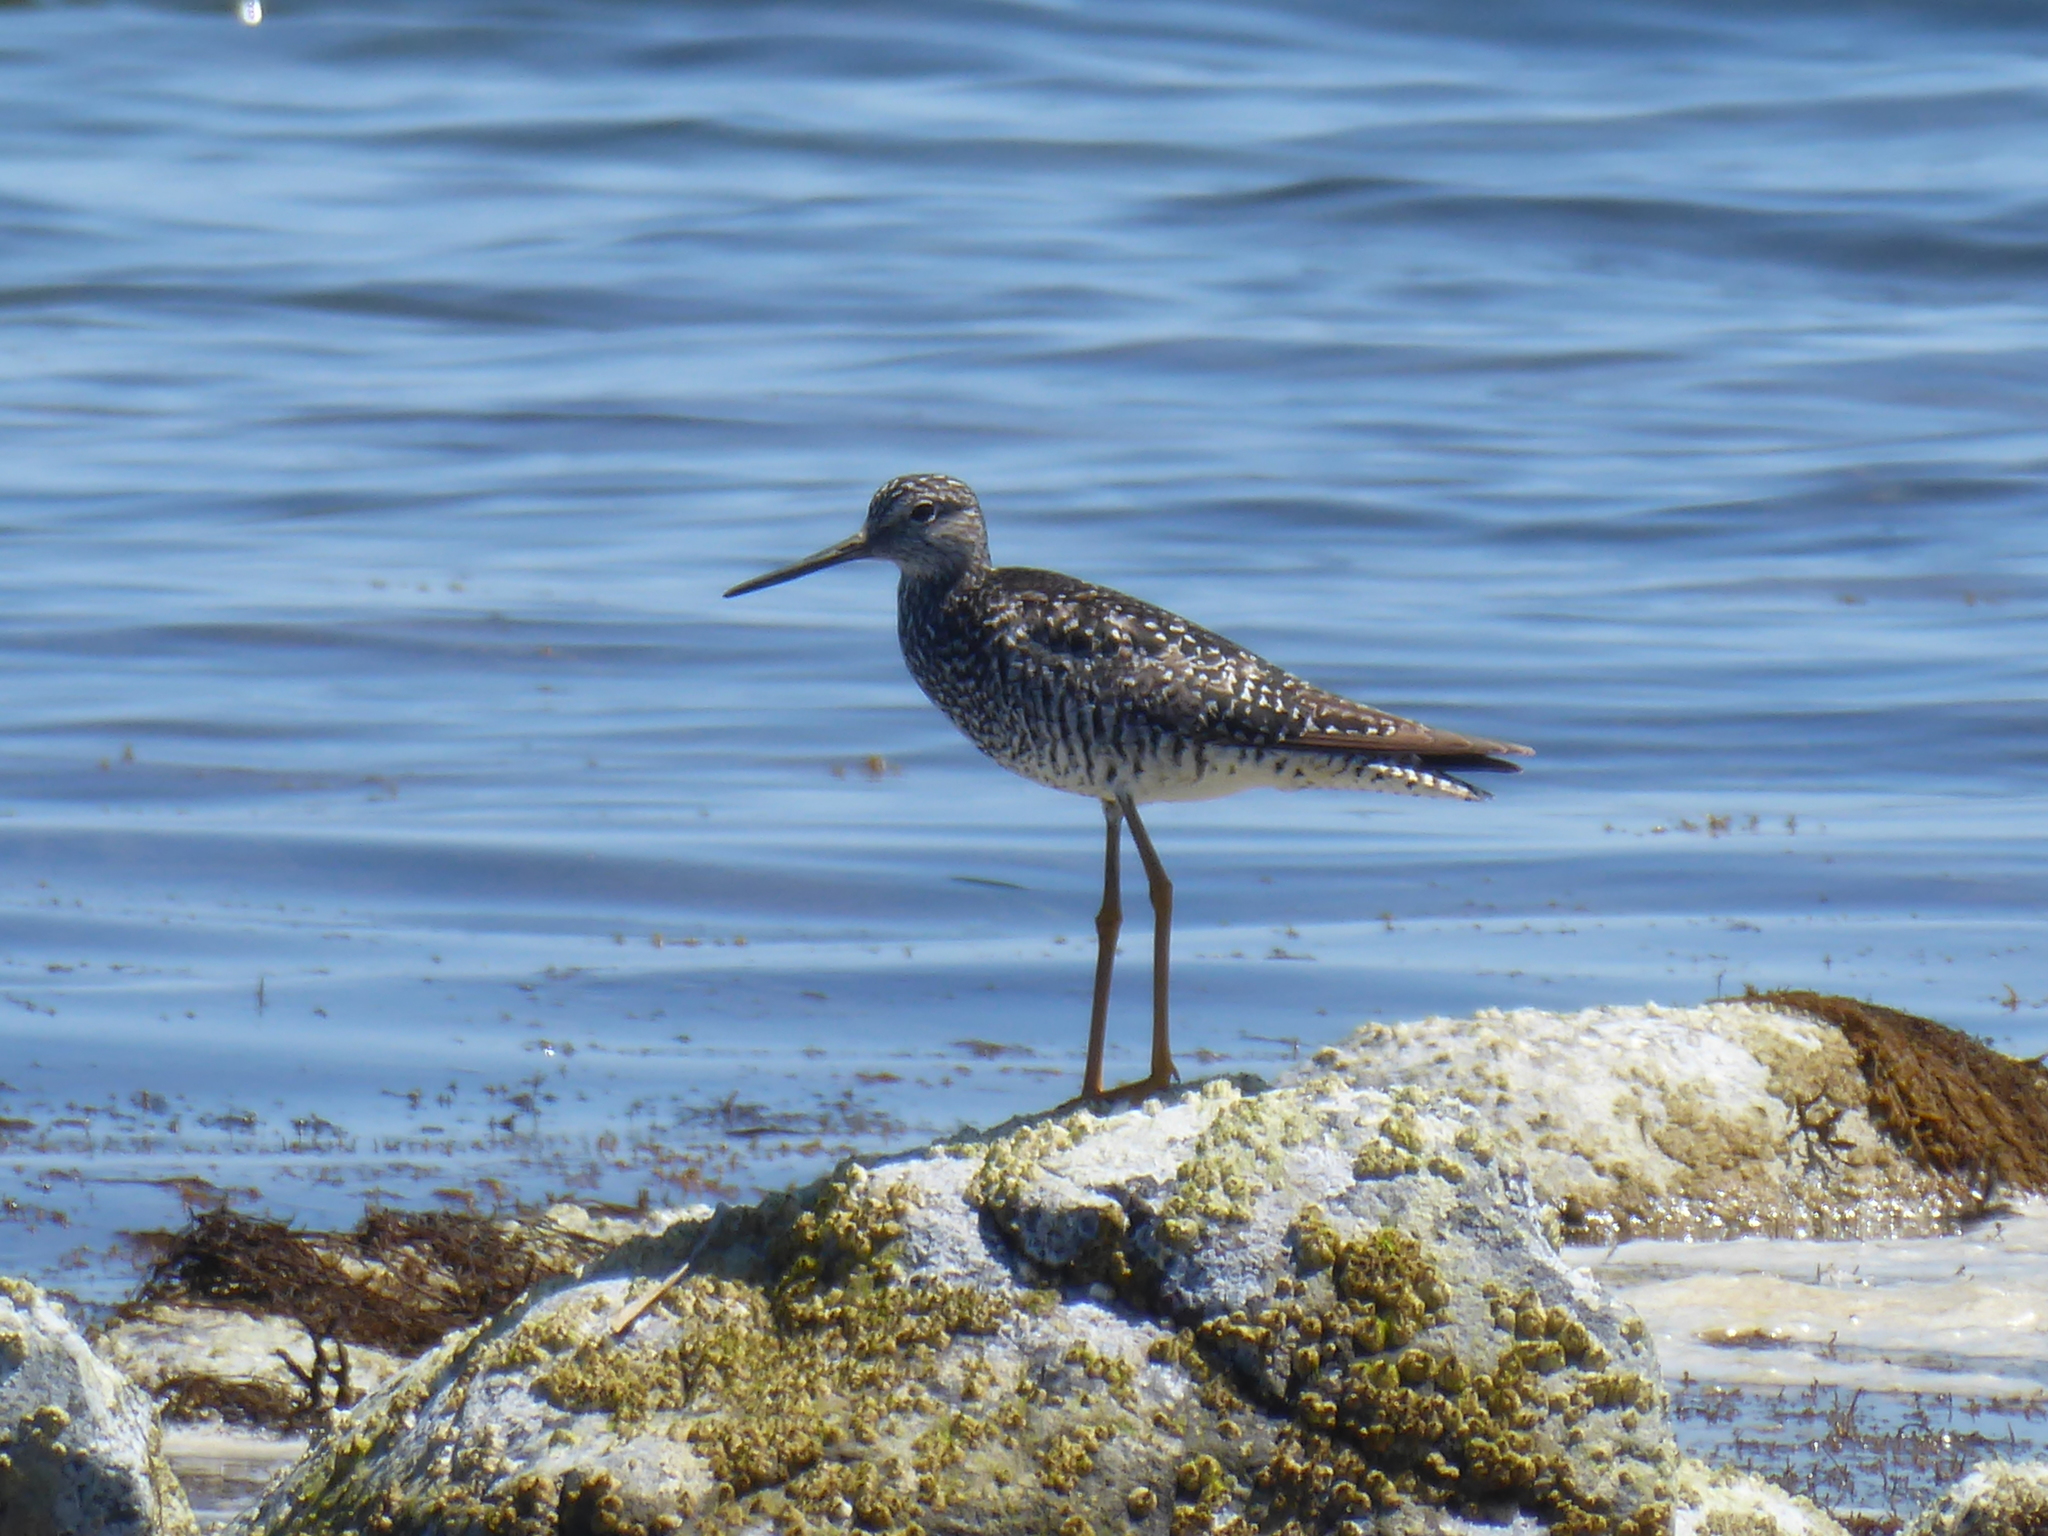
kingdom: Animalia
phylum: Chordata
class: Aves
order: Charadriiformes
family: Scolopacidae
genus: Tringa
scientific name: Tringa melanoleuca
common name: Greater yellowlegs
